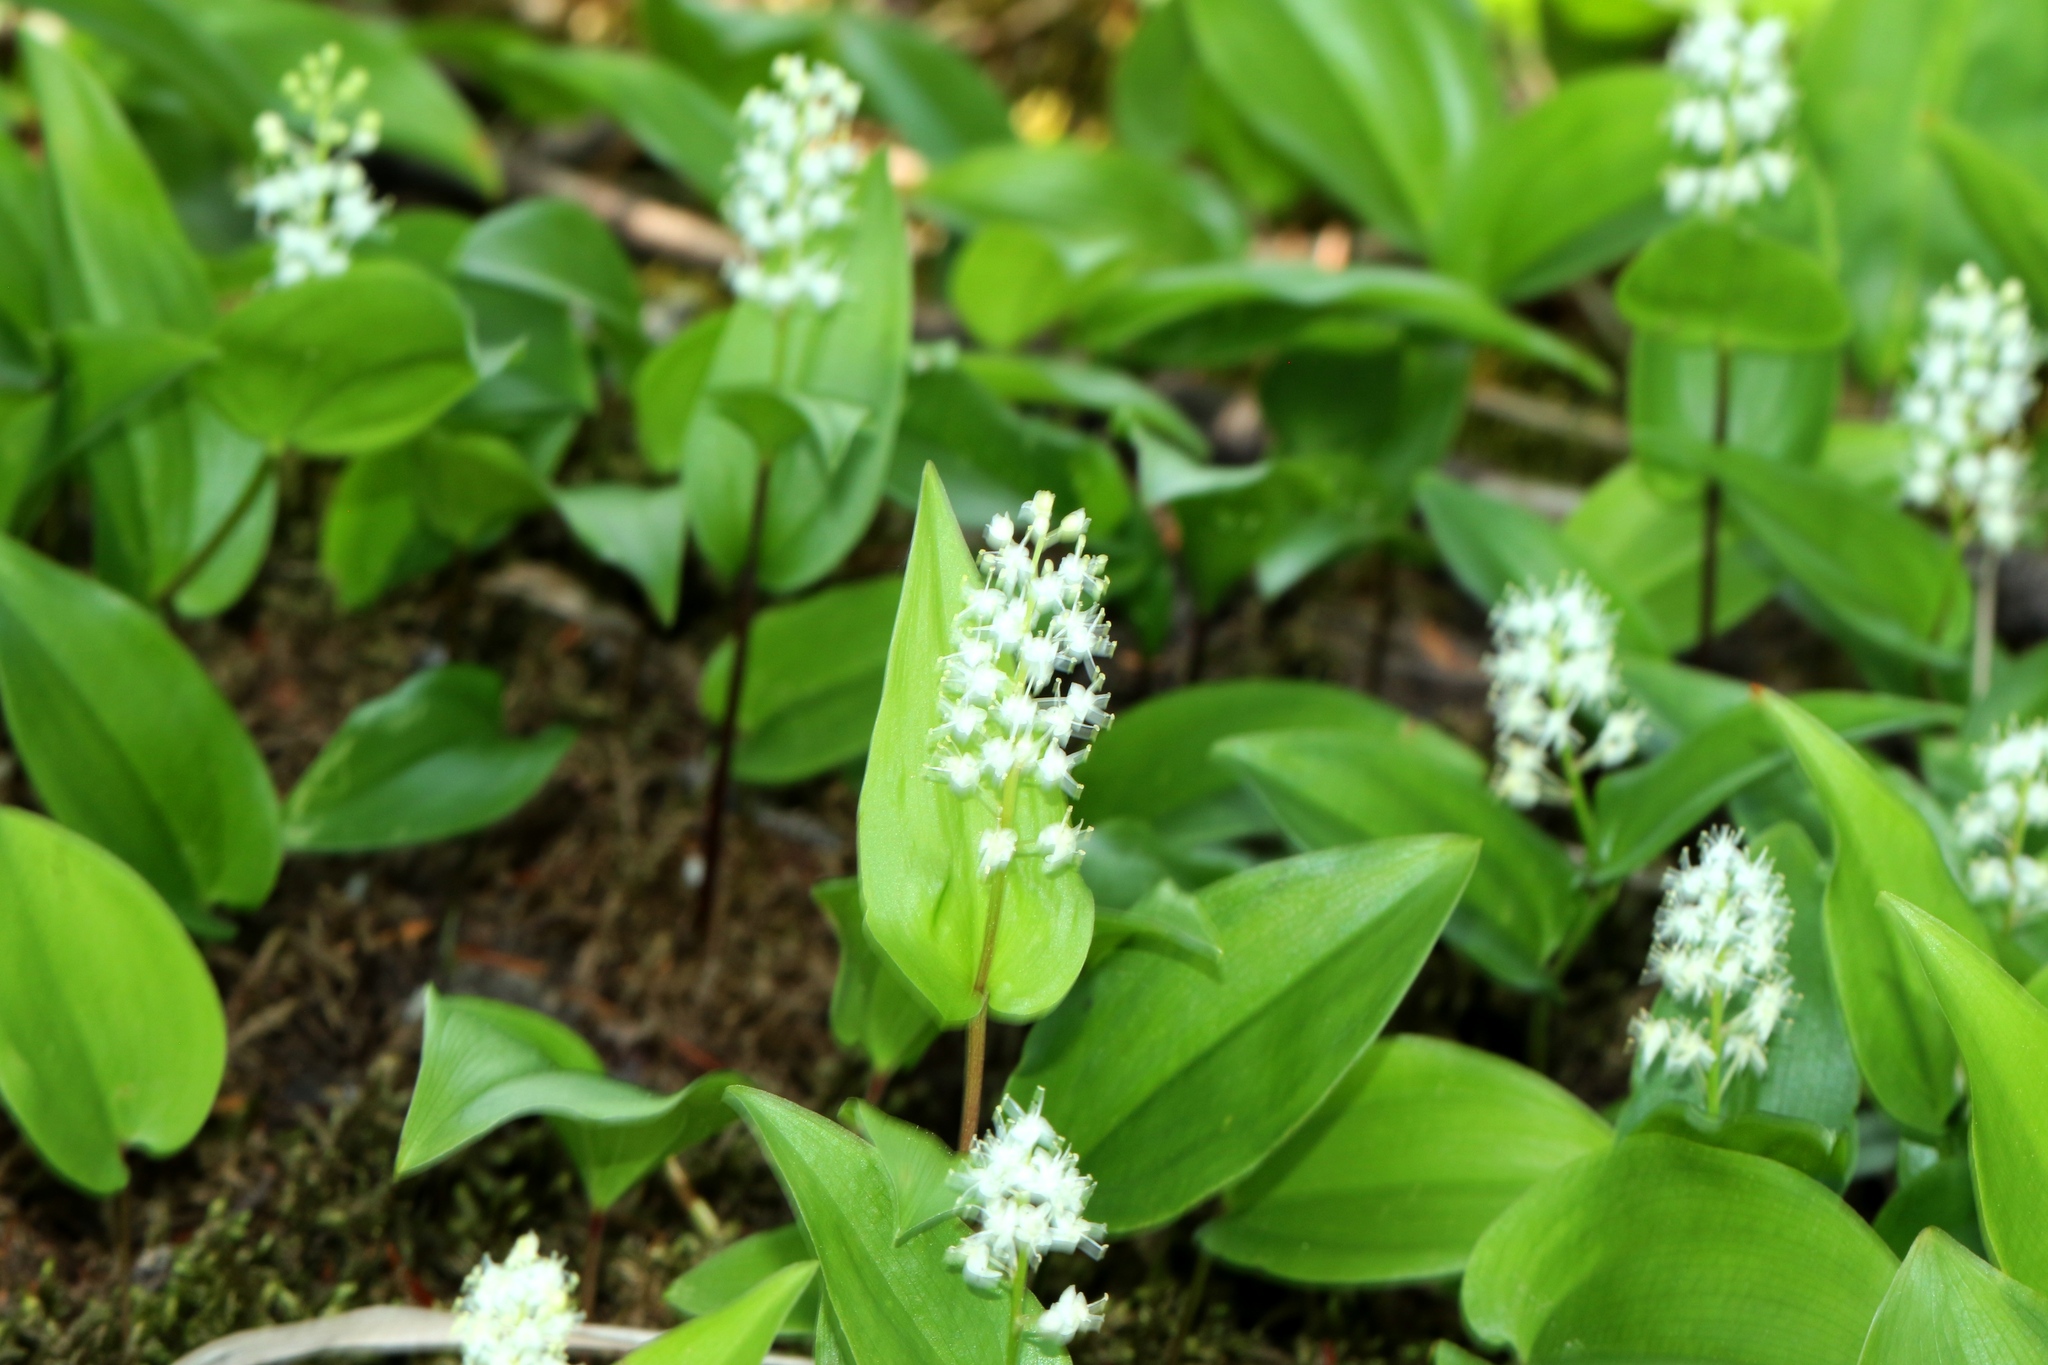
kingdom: Plantae
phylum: Tracheophyta
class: Liliopsida
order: Asparagales
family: Asparagaceae
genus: Maianthemum
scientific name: Maianthemum canadense
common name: False lily-of-the-valley
